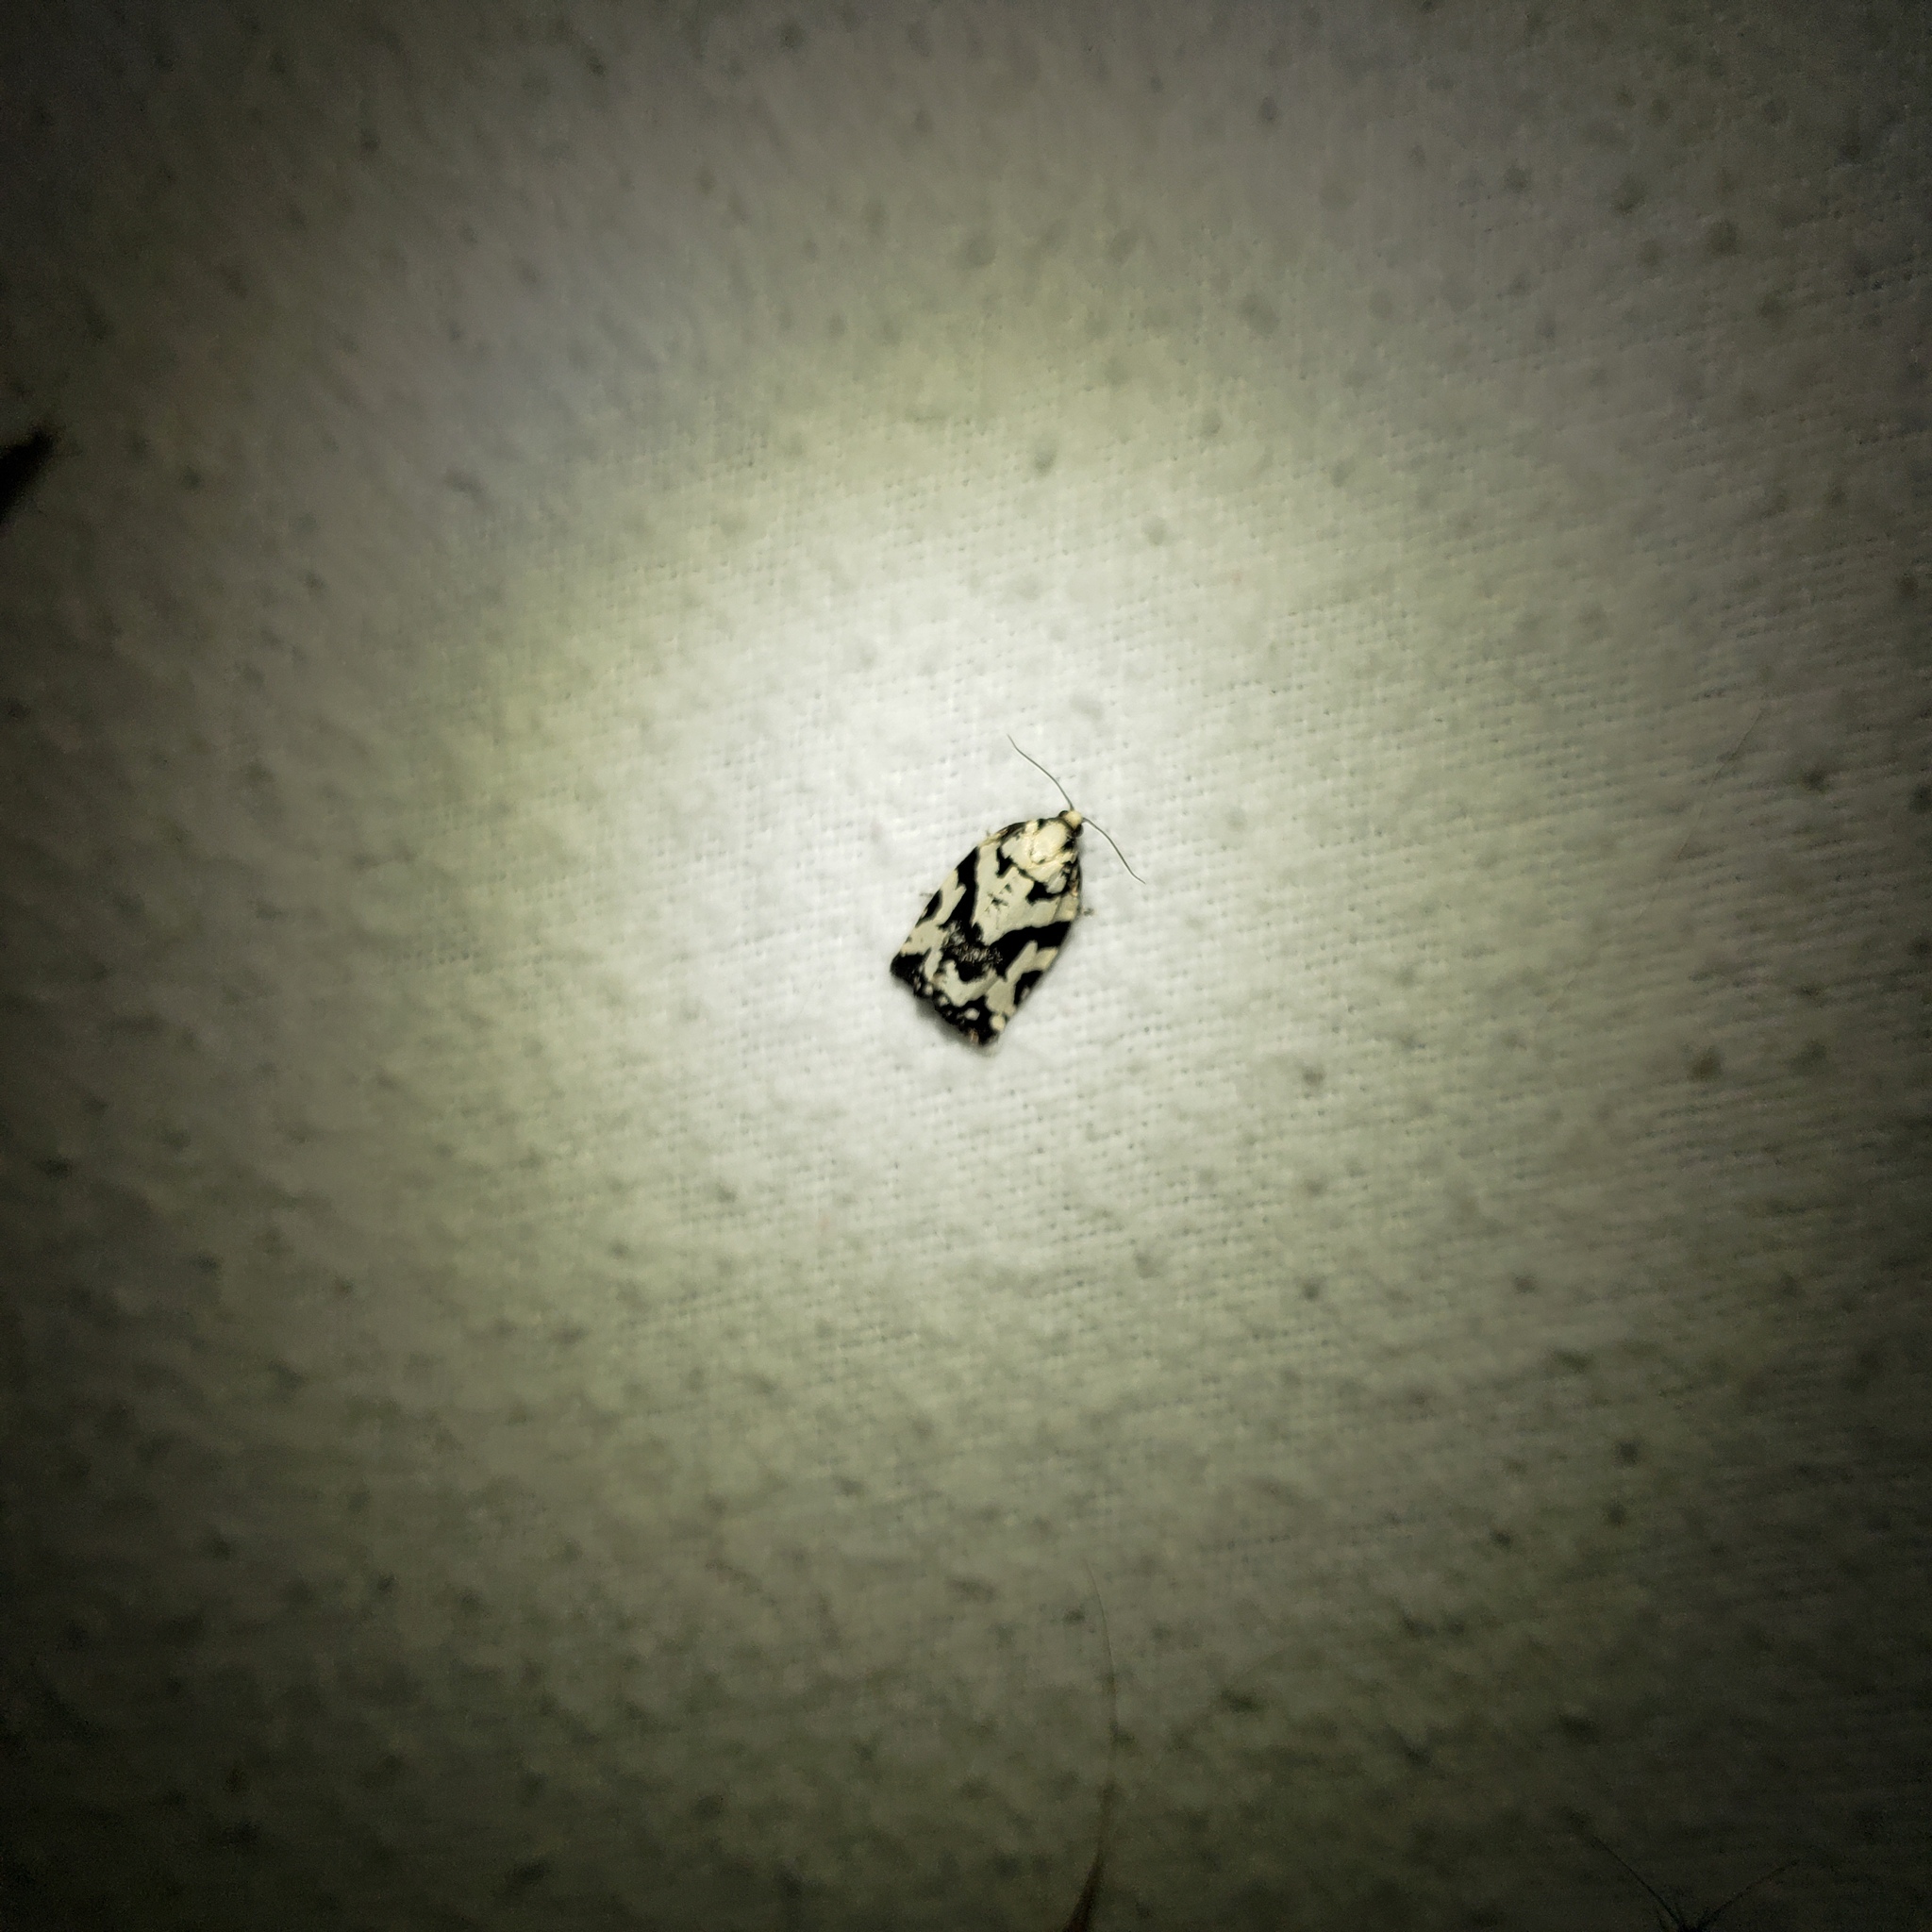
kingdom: Animalia
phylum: Arthropoda
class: Insecta
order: Lepidoptera
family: Tortricidae
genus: Archips
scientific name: Archips dissitana
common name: Boldly-marked archips moth
